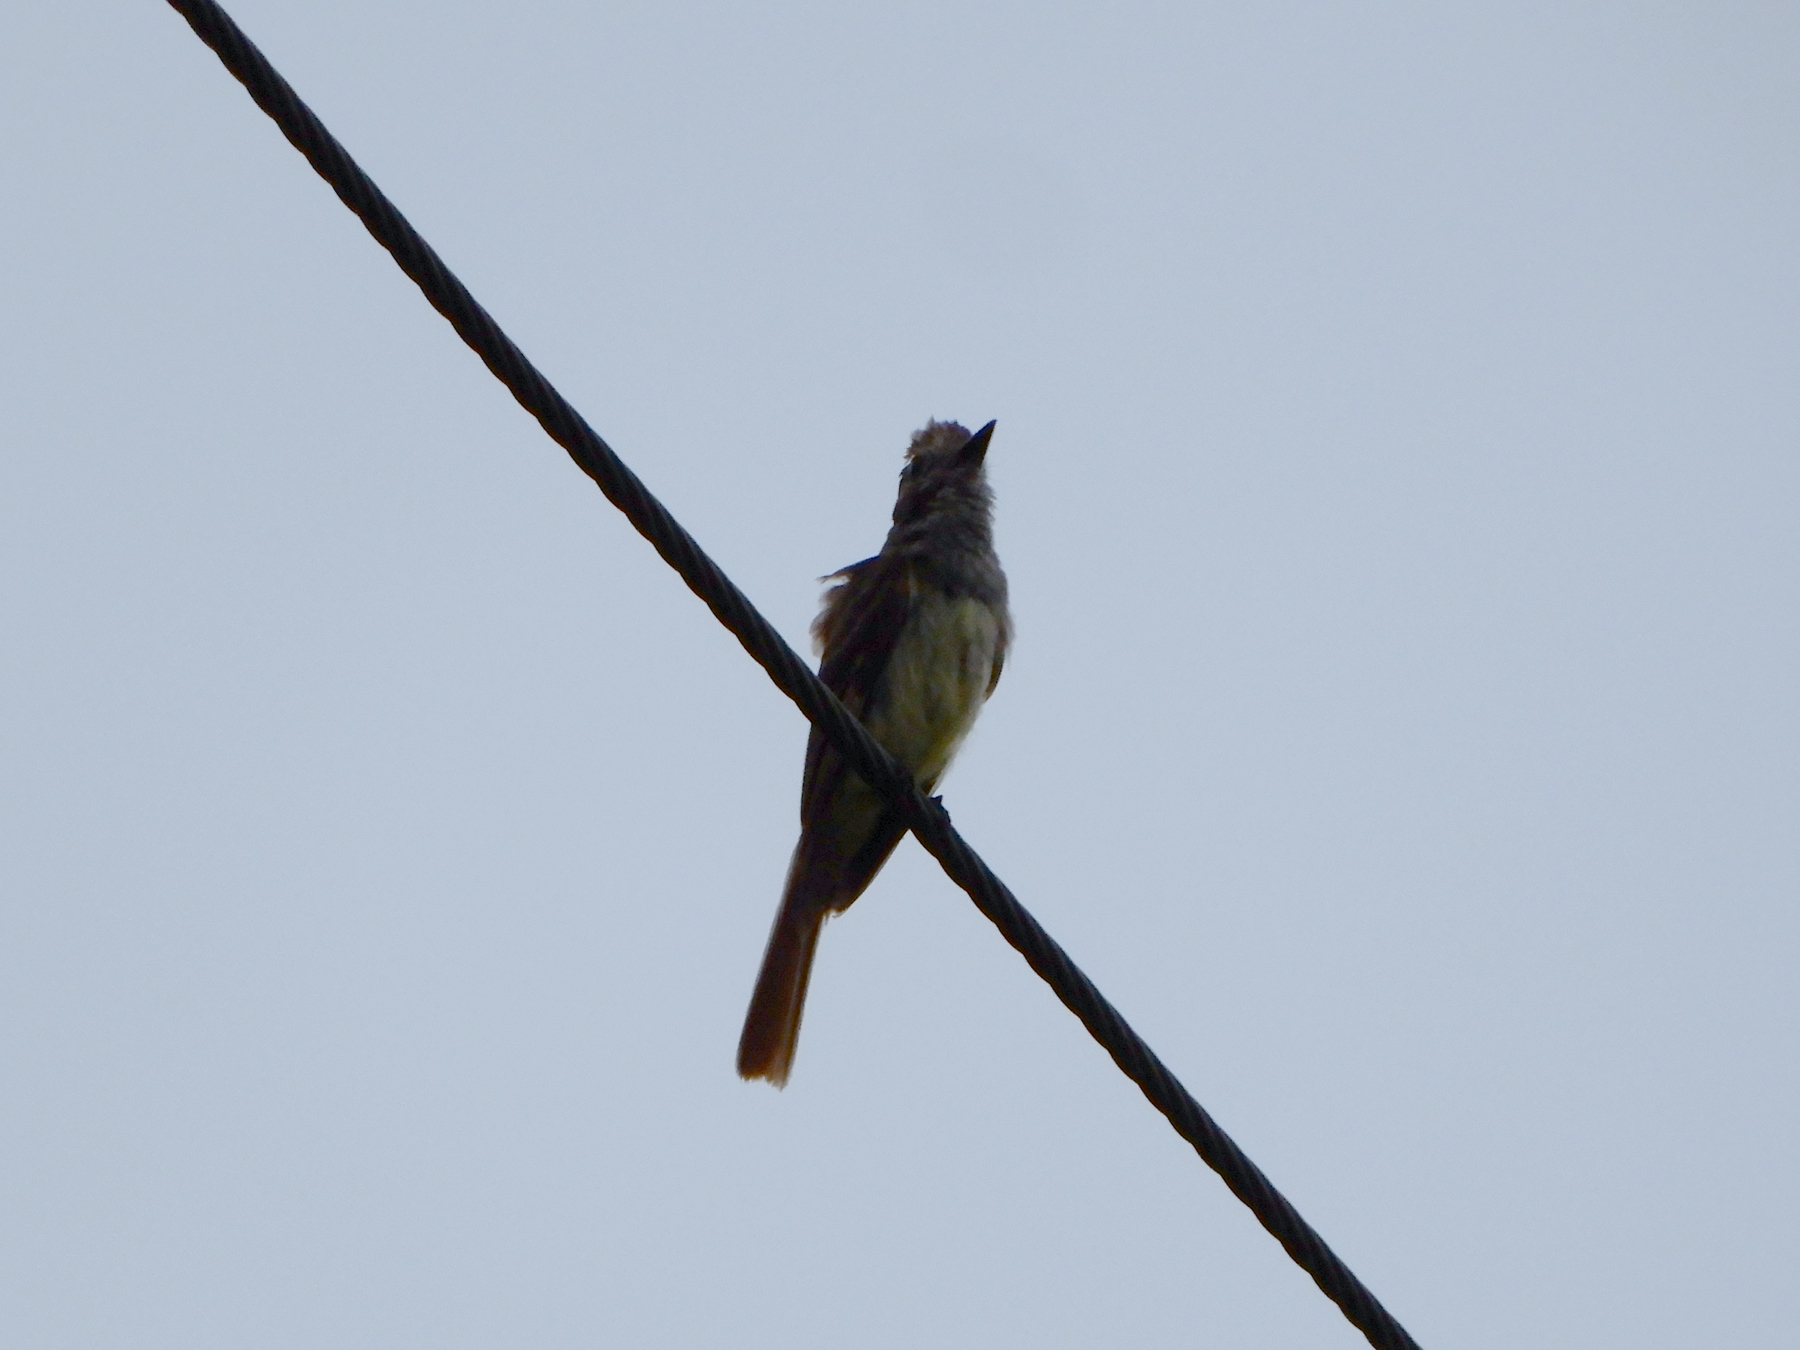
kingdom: Animalia
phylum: Chordata
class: Aves
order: Passeriformes
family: Tyrannidae
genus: Myiarchus
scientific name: Myiarchus crinitus
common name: Great crested flycatcher
